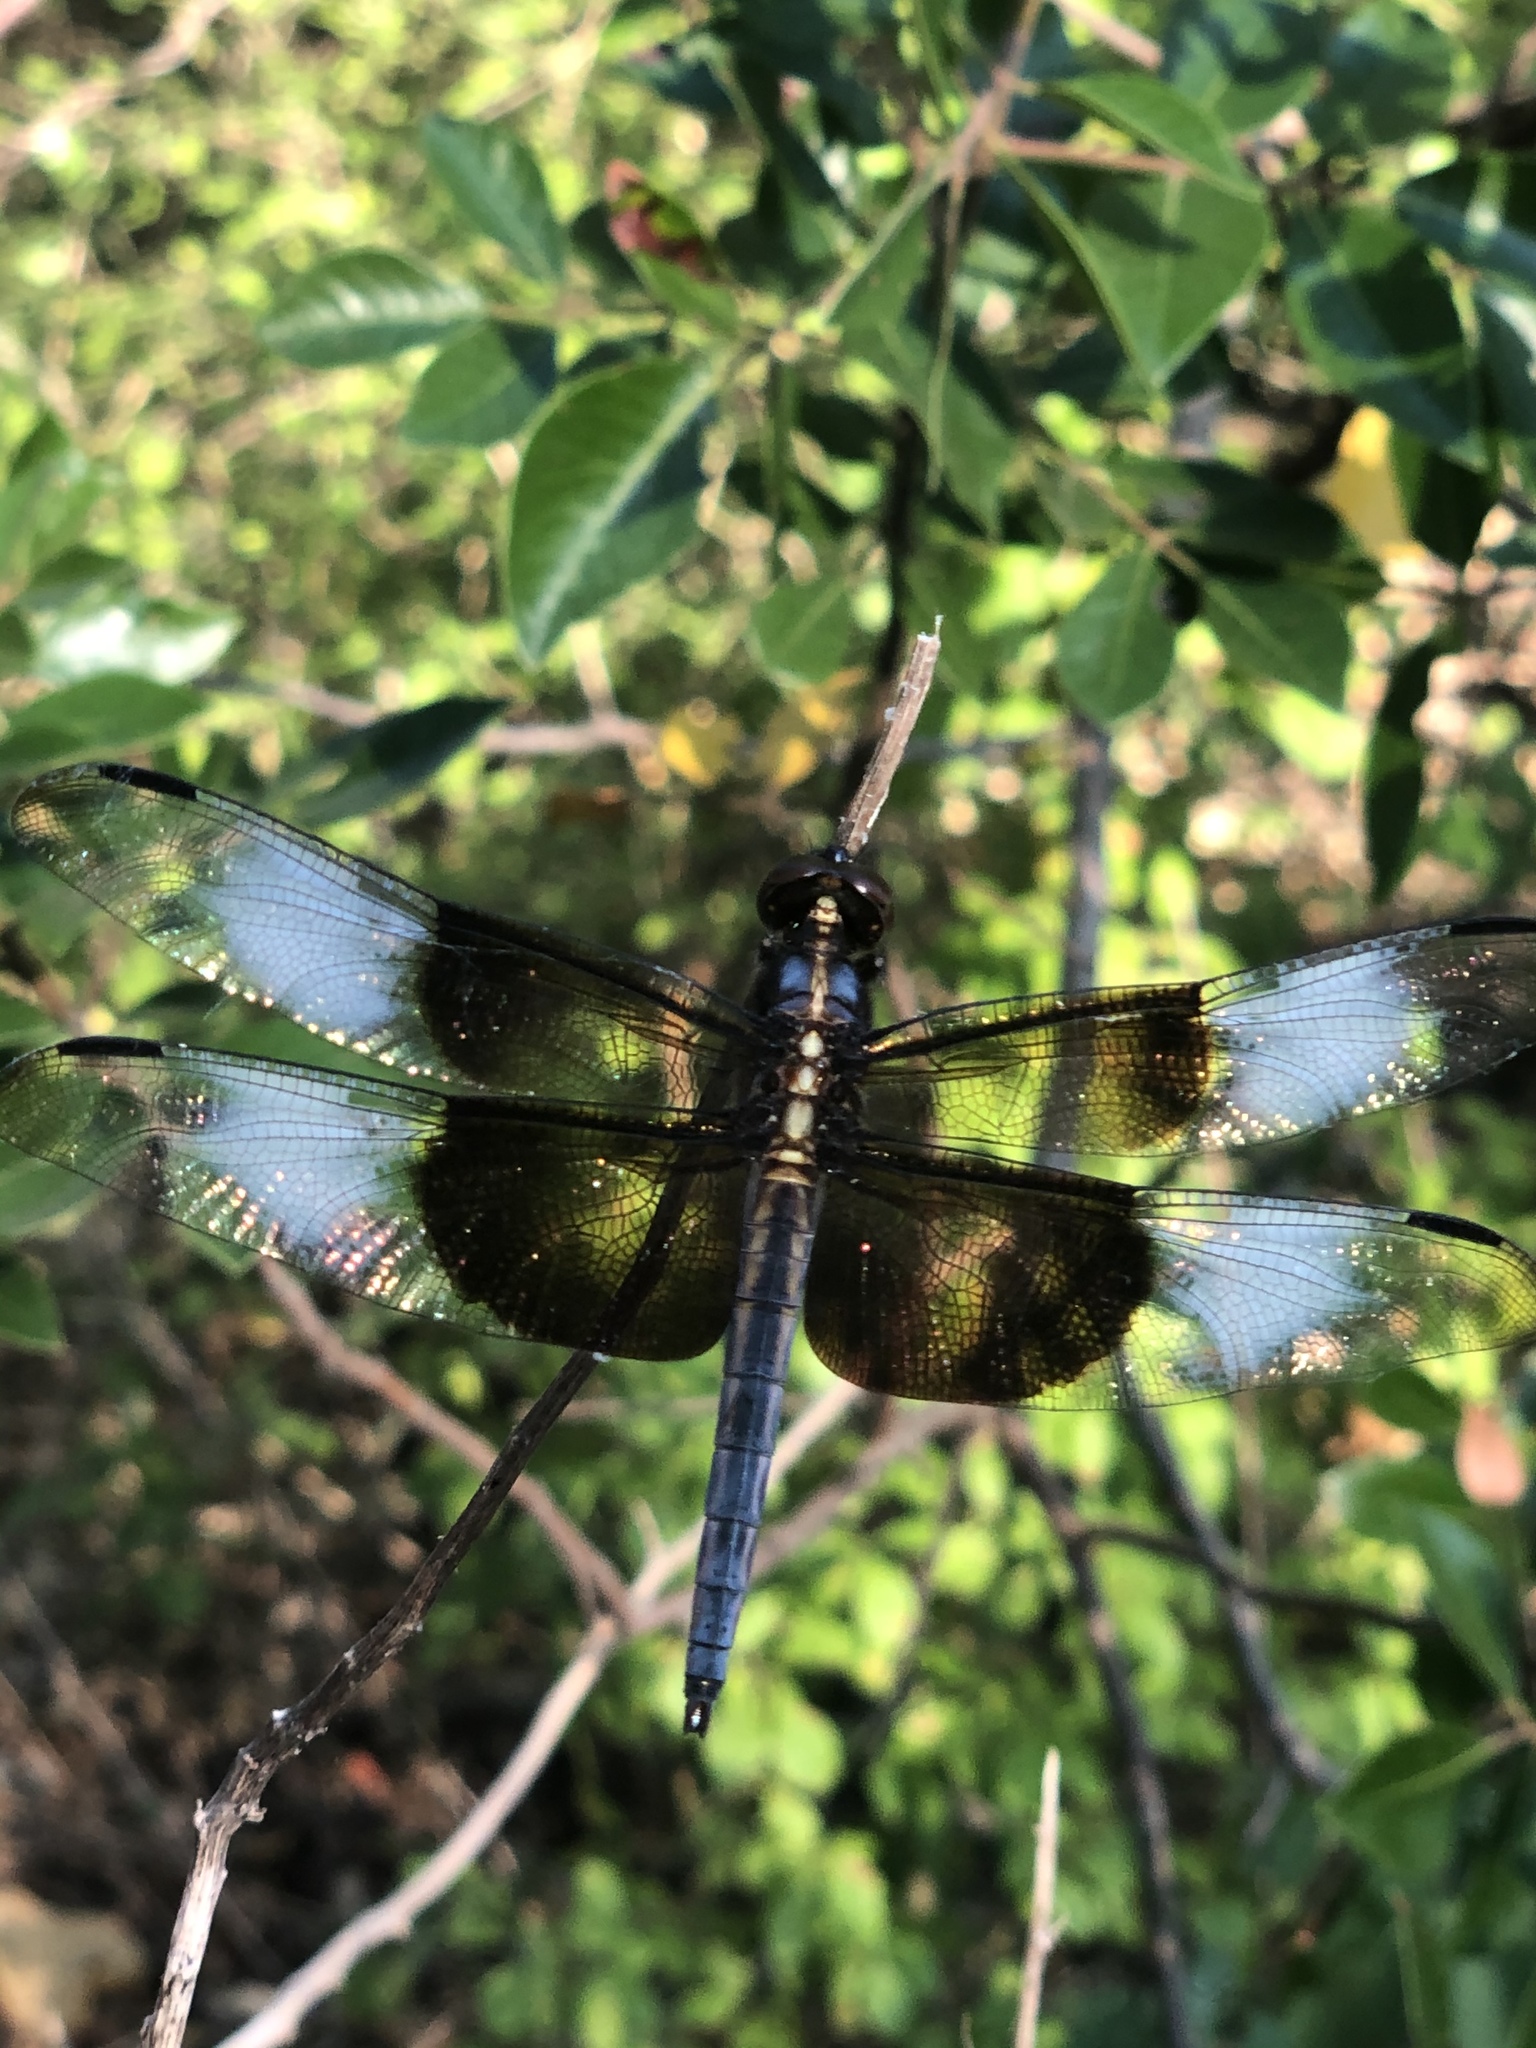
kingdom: Animalia
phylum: Arthropoda
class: Insecta
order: Odonata
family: Libellulidae
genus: Libellula
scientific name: Libellula luctuosa
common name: Widow skimmer
